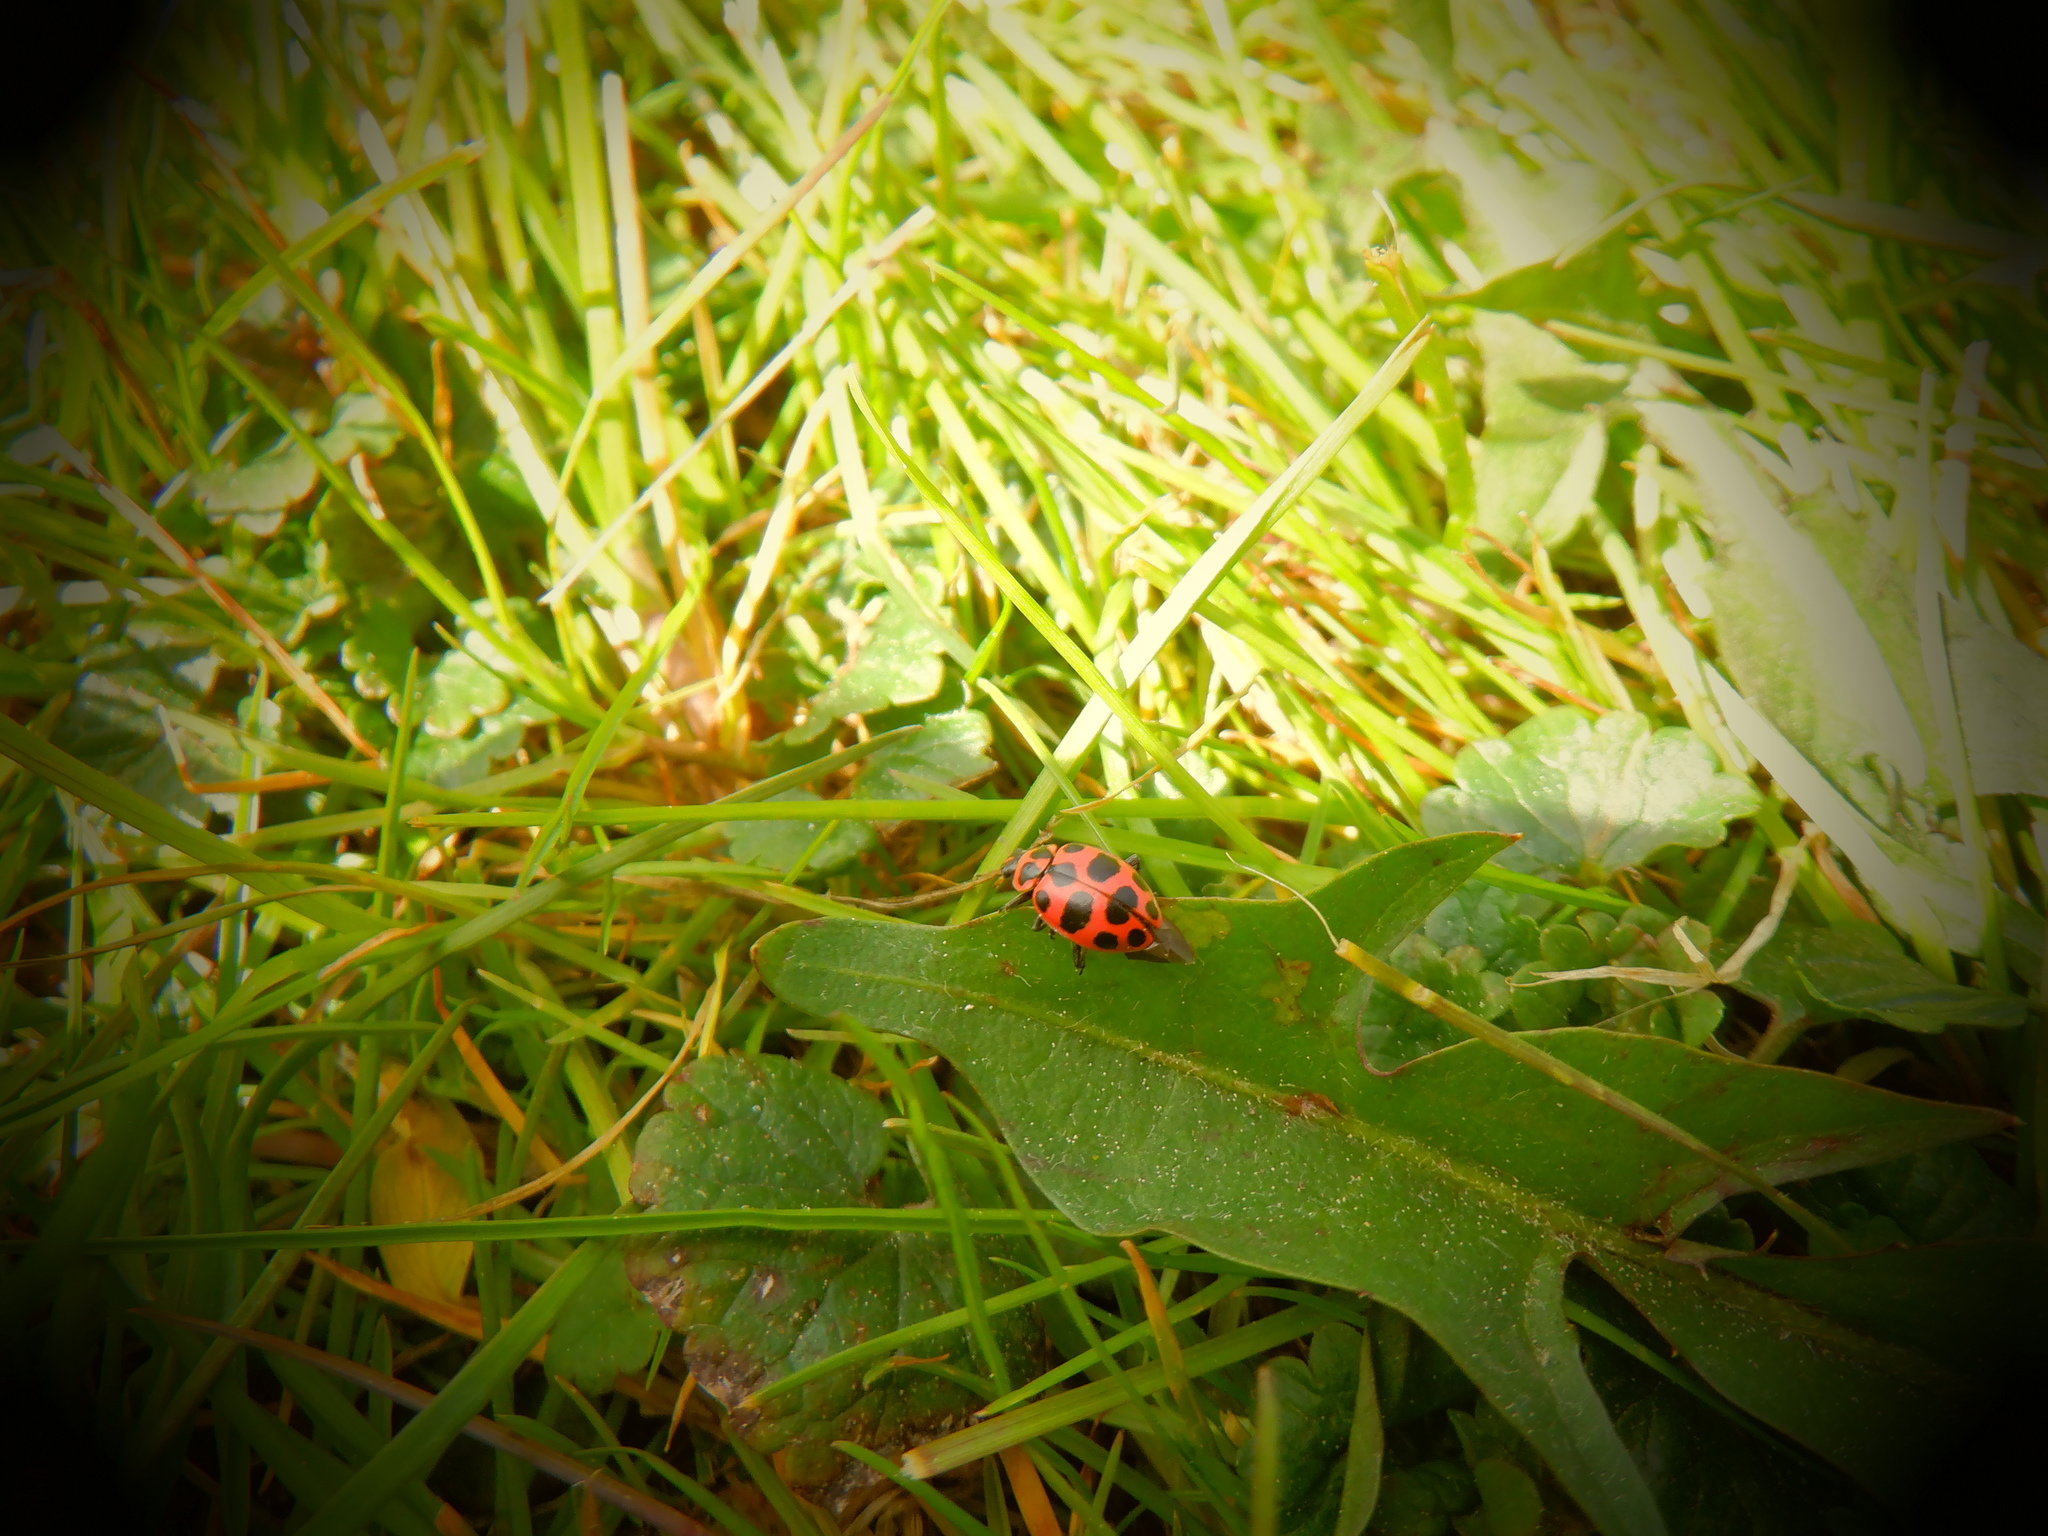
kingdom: Animalia
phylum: Arthropoda
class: Insecta
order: Coleoptera
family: Coccinellidae
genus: Coleomegilla
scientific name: Coleomegilla maculata
